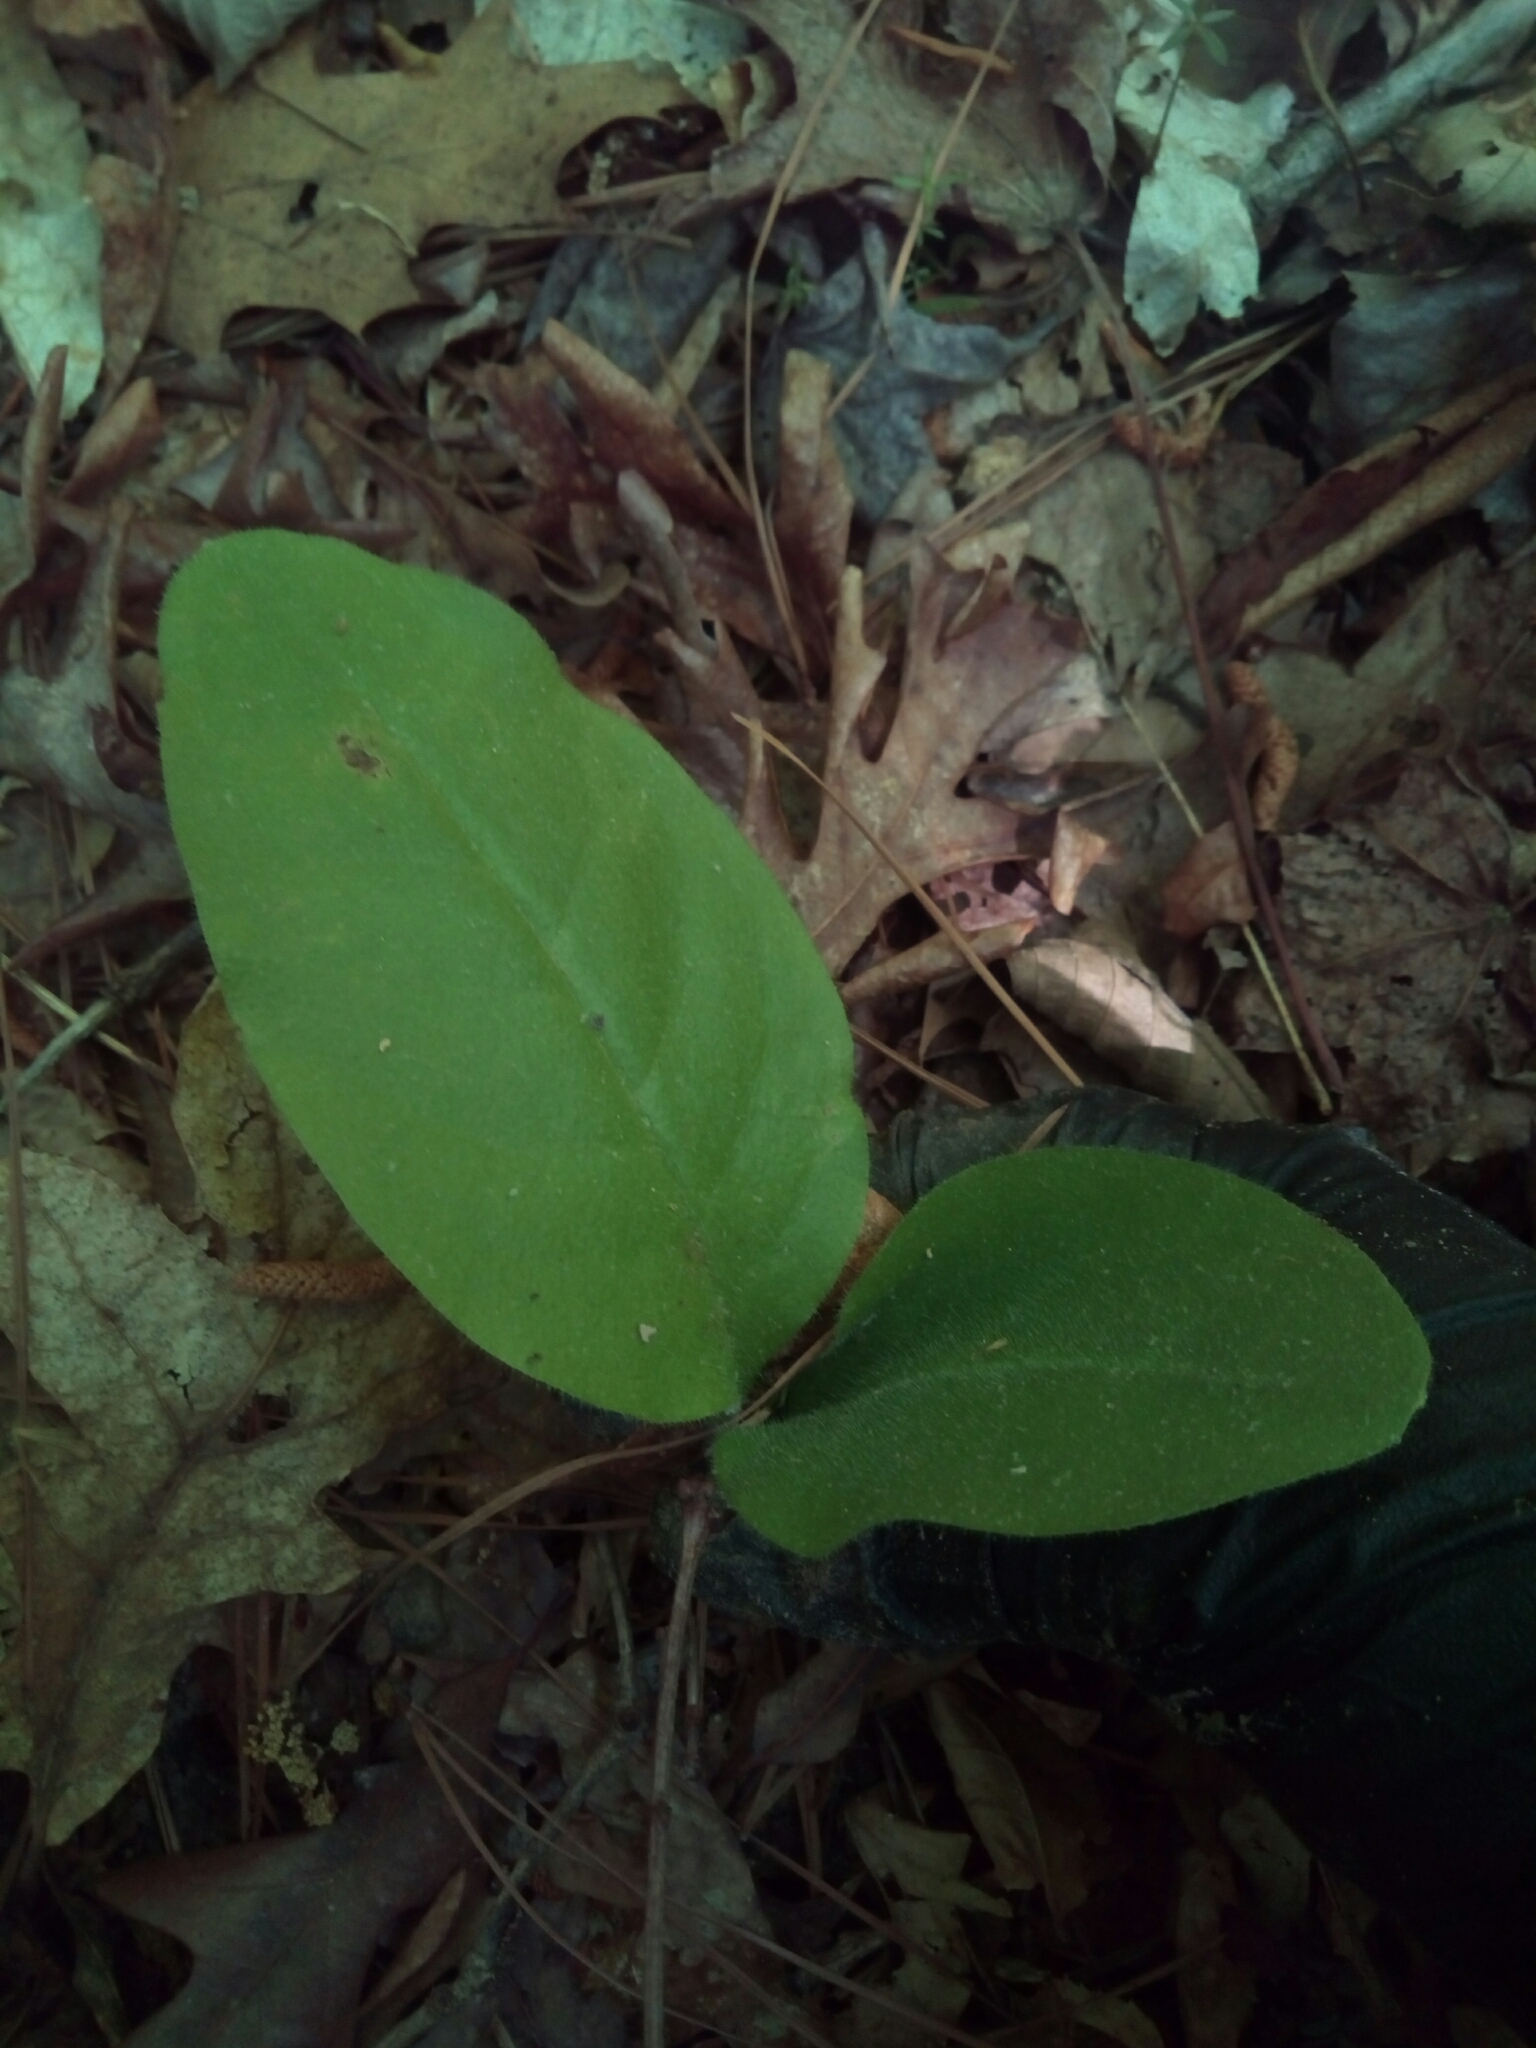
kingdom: Plantae
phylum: Tracheophyta
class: Magnoliopsida
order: Boraginales
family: Boraginaceae
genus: Andersonglossum
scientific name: Andersonglossum virginianum
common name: Wild comfrey
